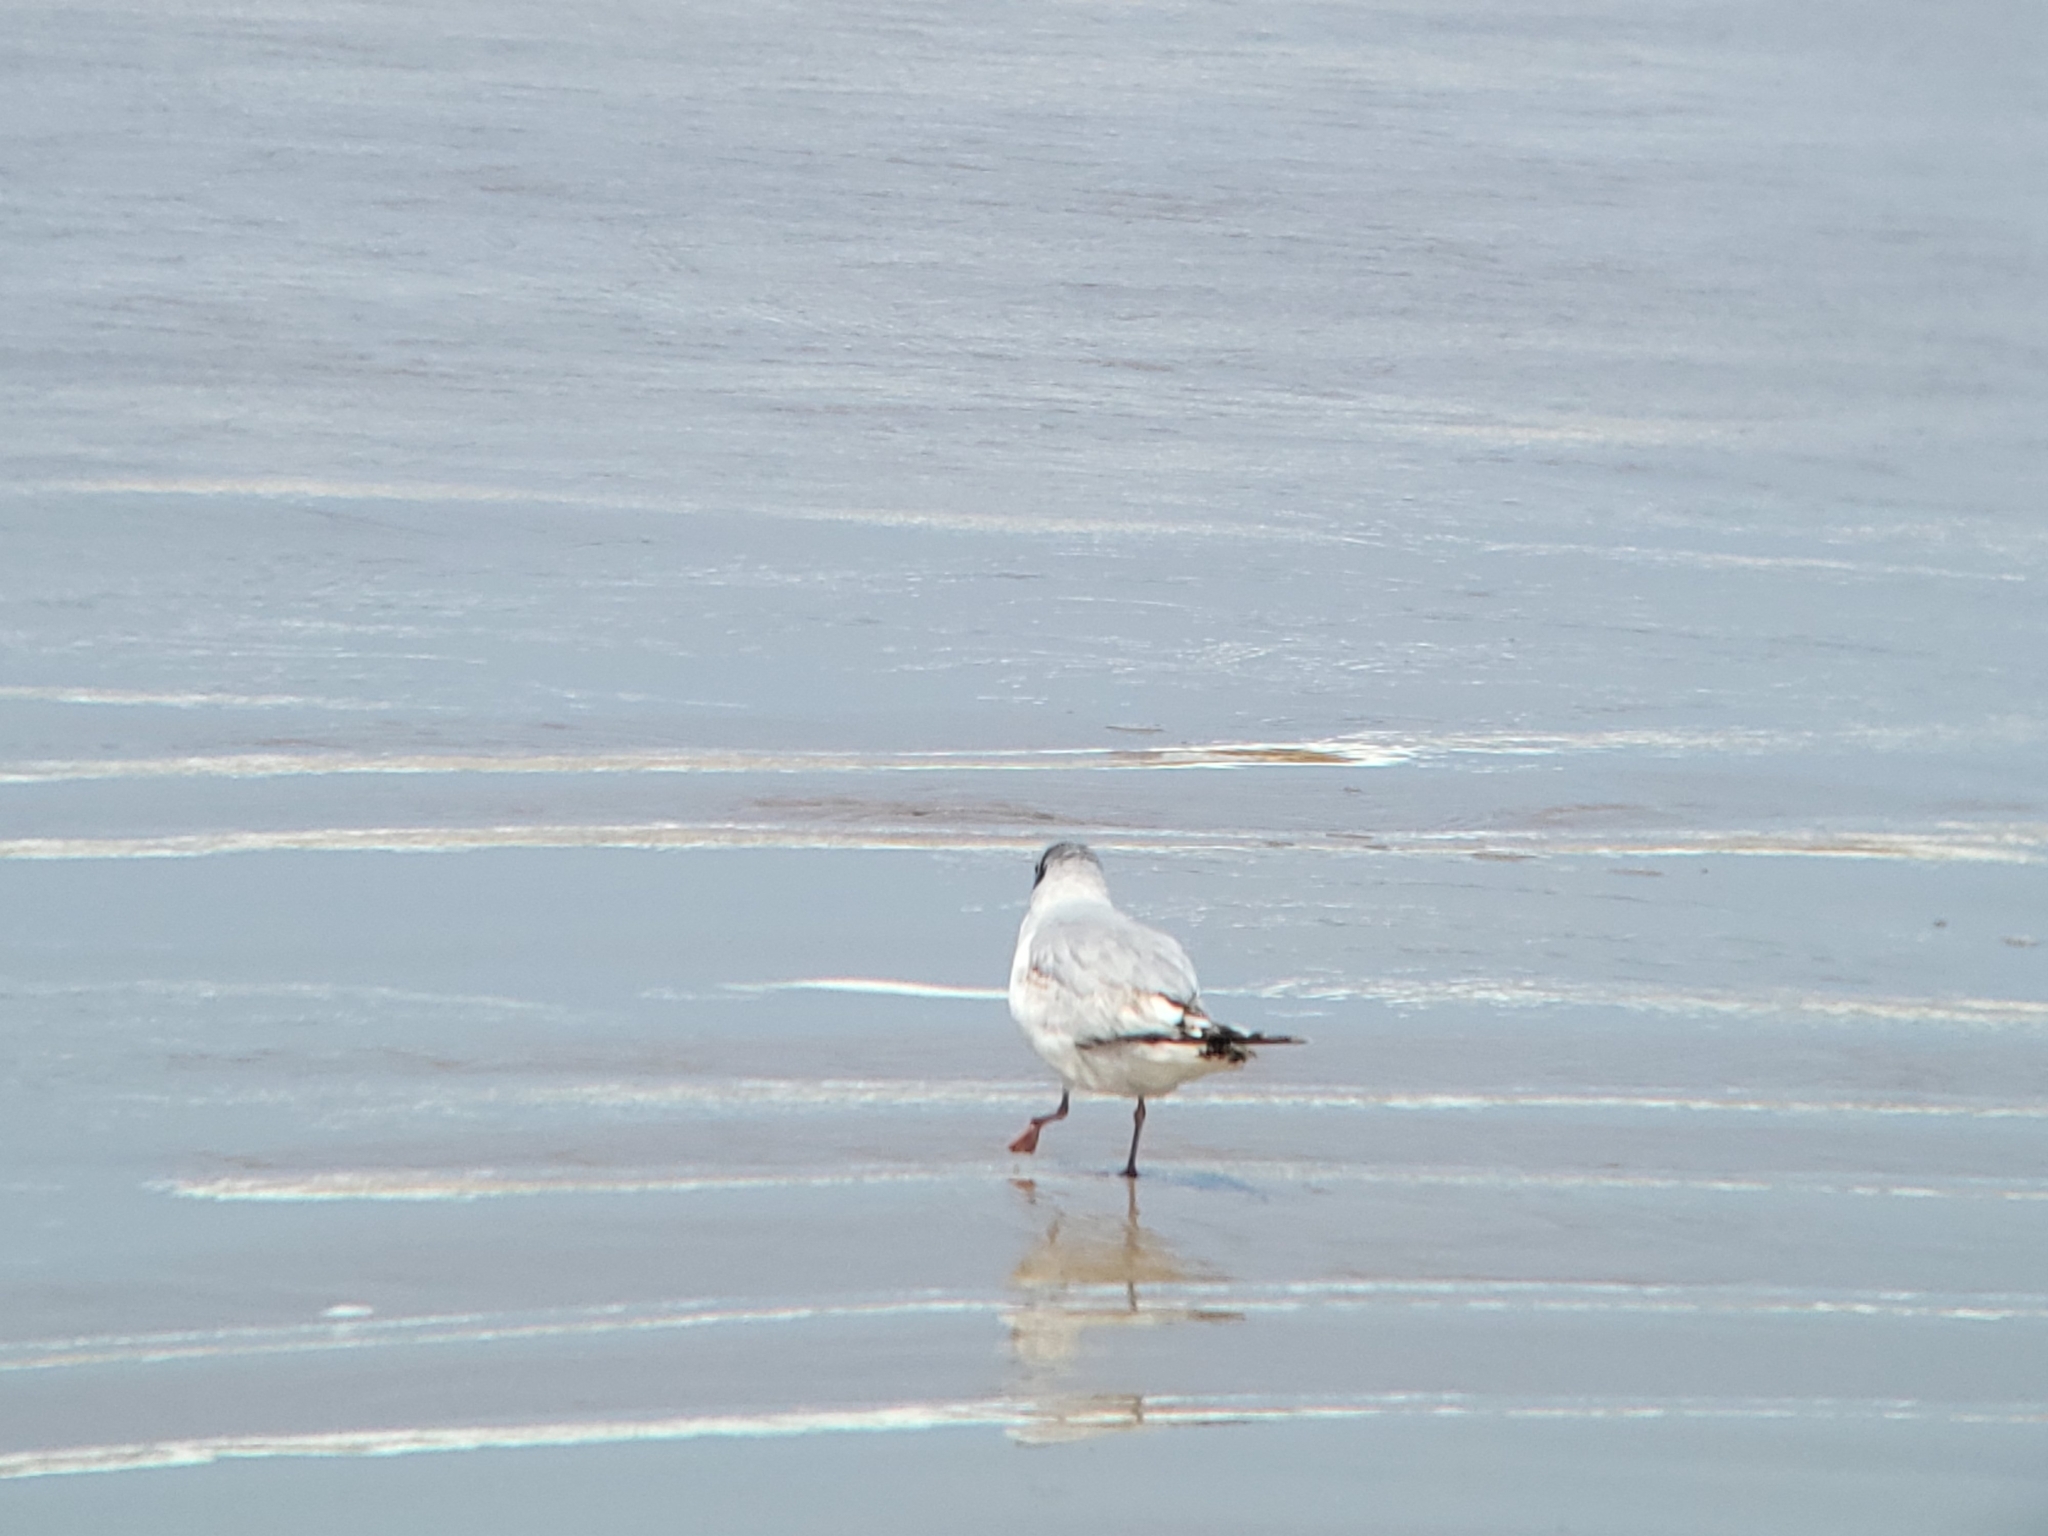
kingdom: Animalia
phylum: Chordata
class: Aves
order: Charadriiformes
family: Laridae
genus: Chroicocephalus
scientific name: Chroicocephalus philadelphia
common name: Bonaparte's gull
